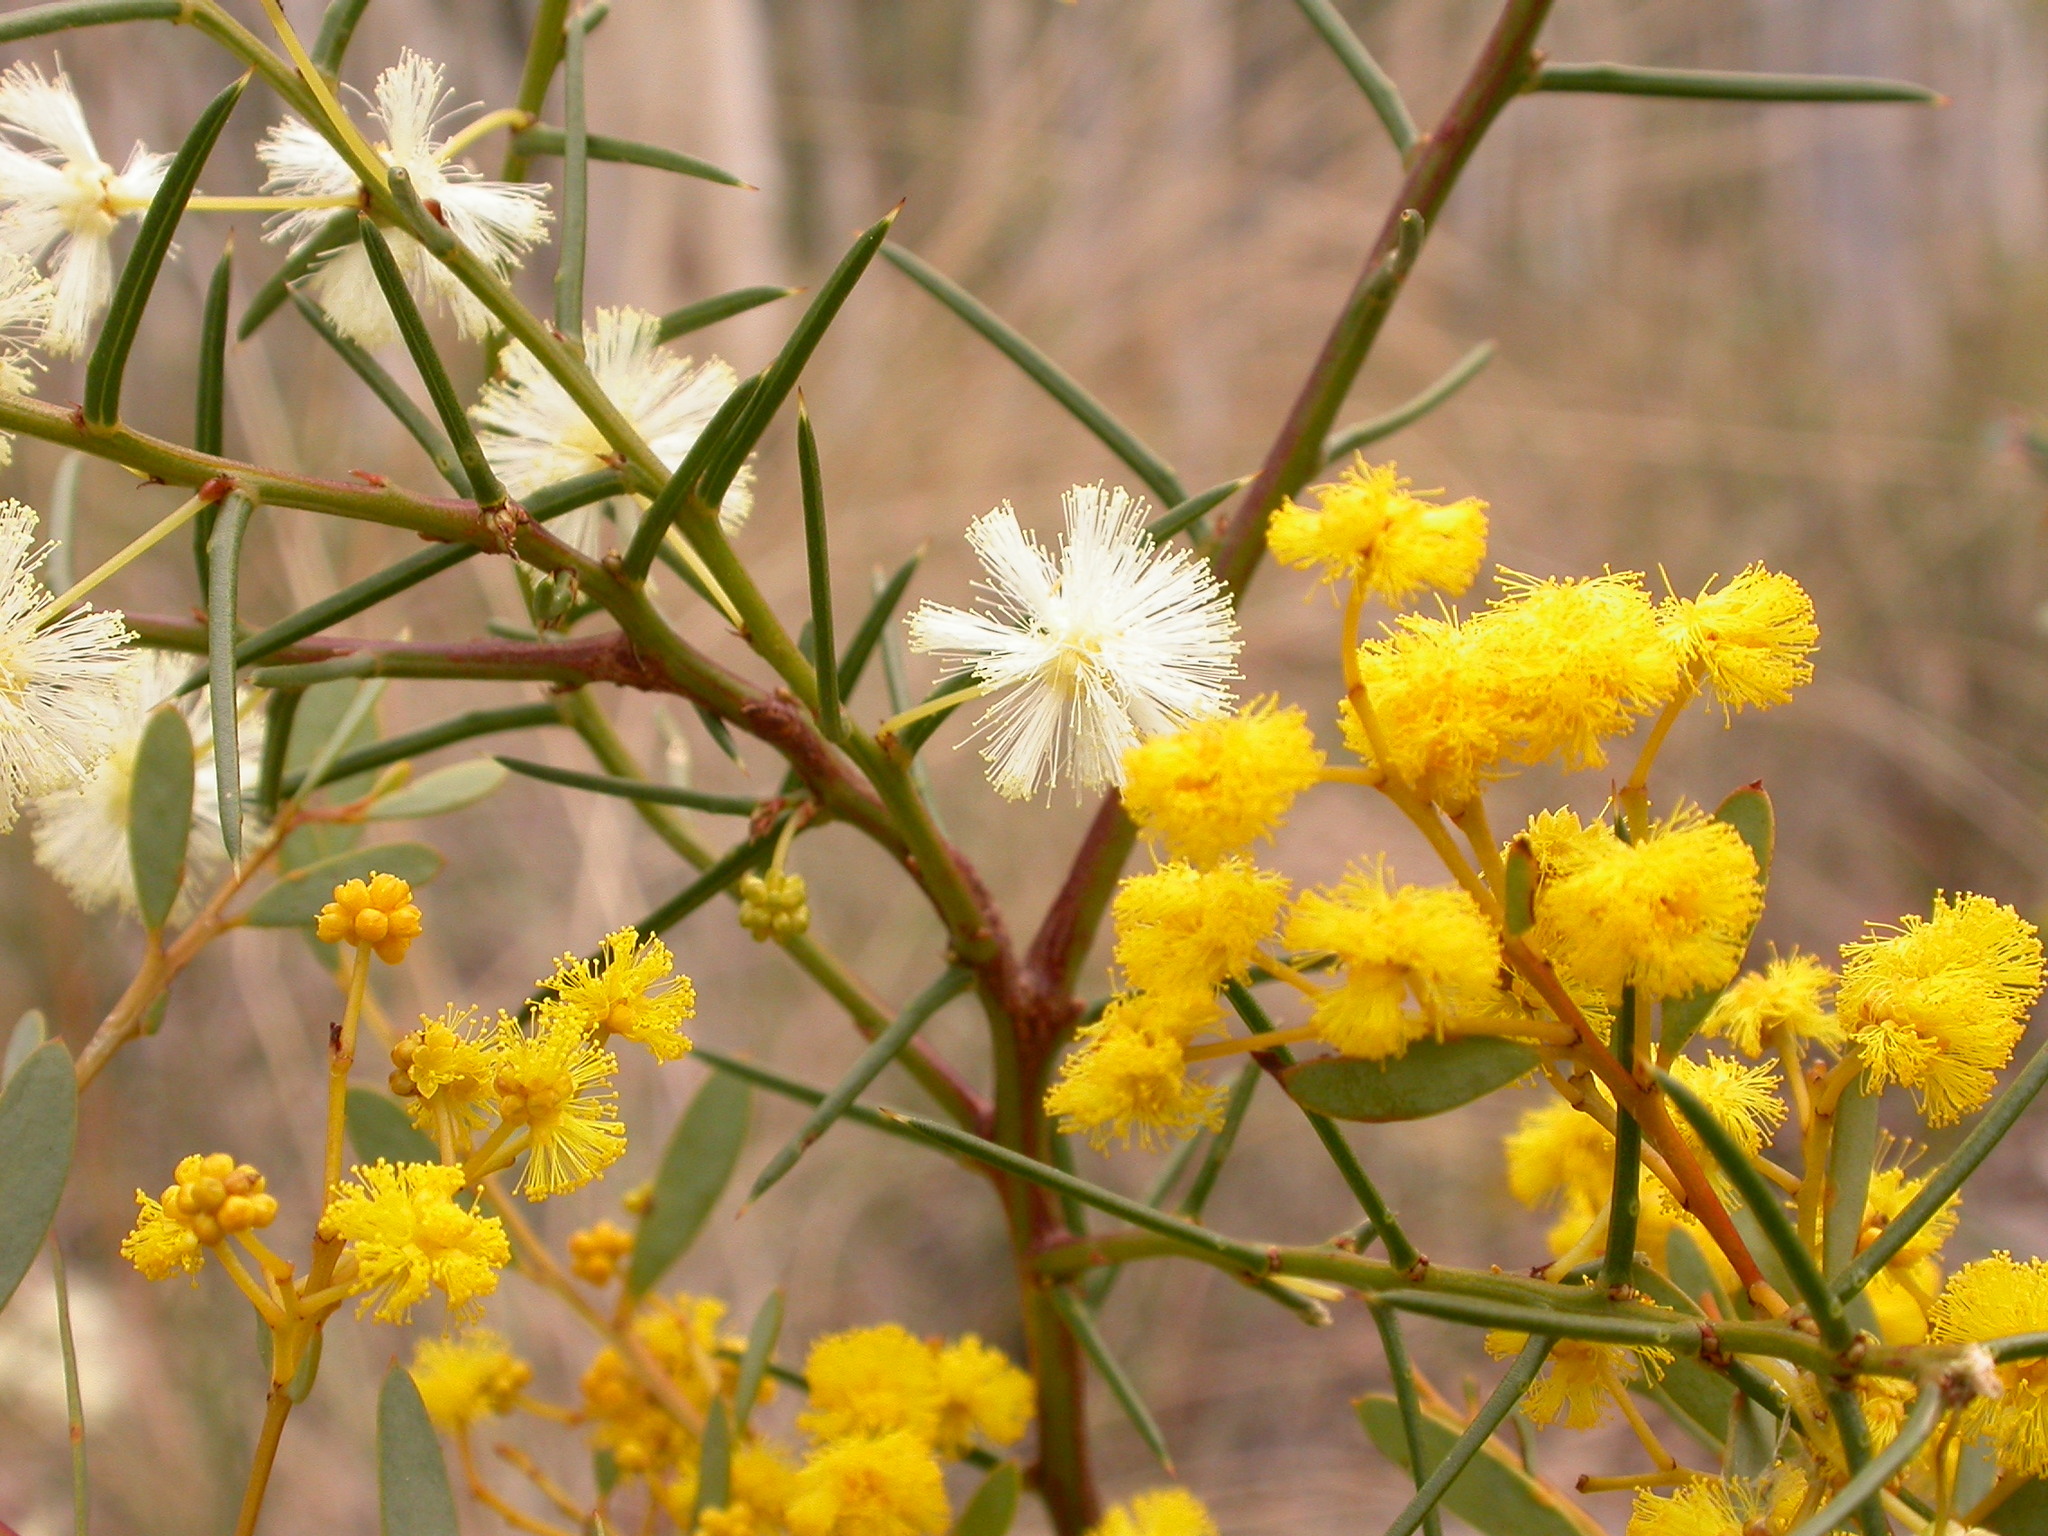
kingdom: Plantae
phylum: Tracheophyta
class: Magnoliopsida
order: Fabales
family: Fabaceae
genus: Acacia
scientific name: Acacia genistifolia
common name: Early wattle
